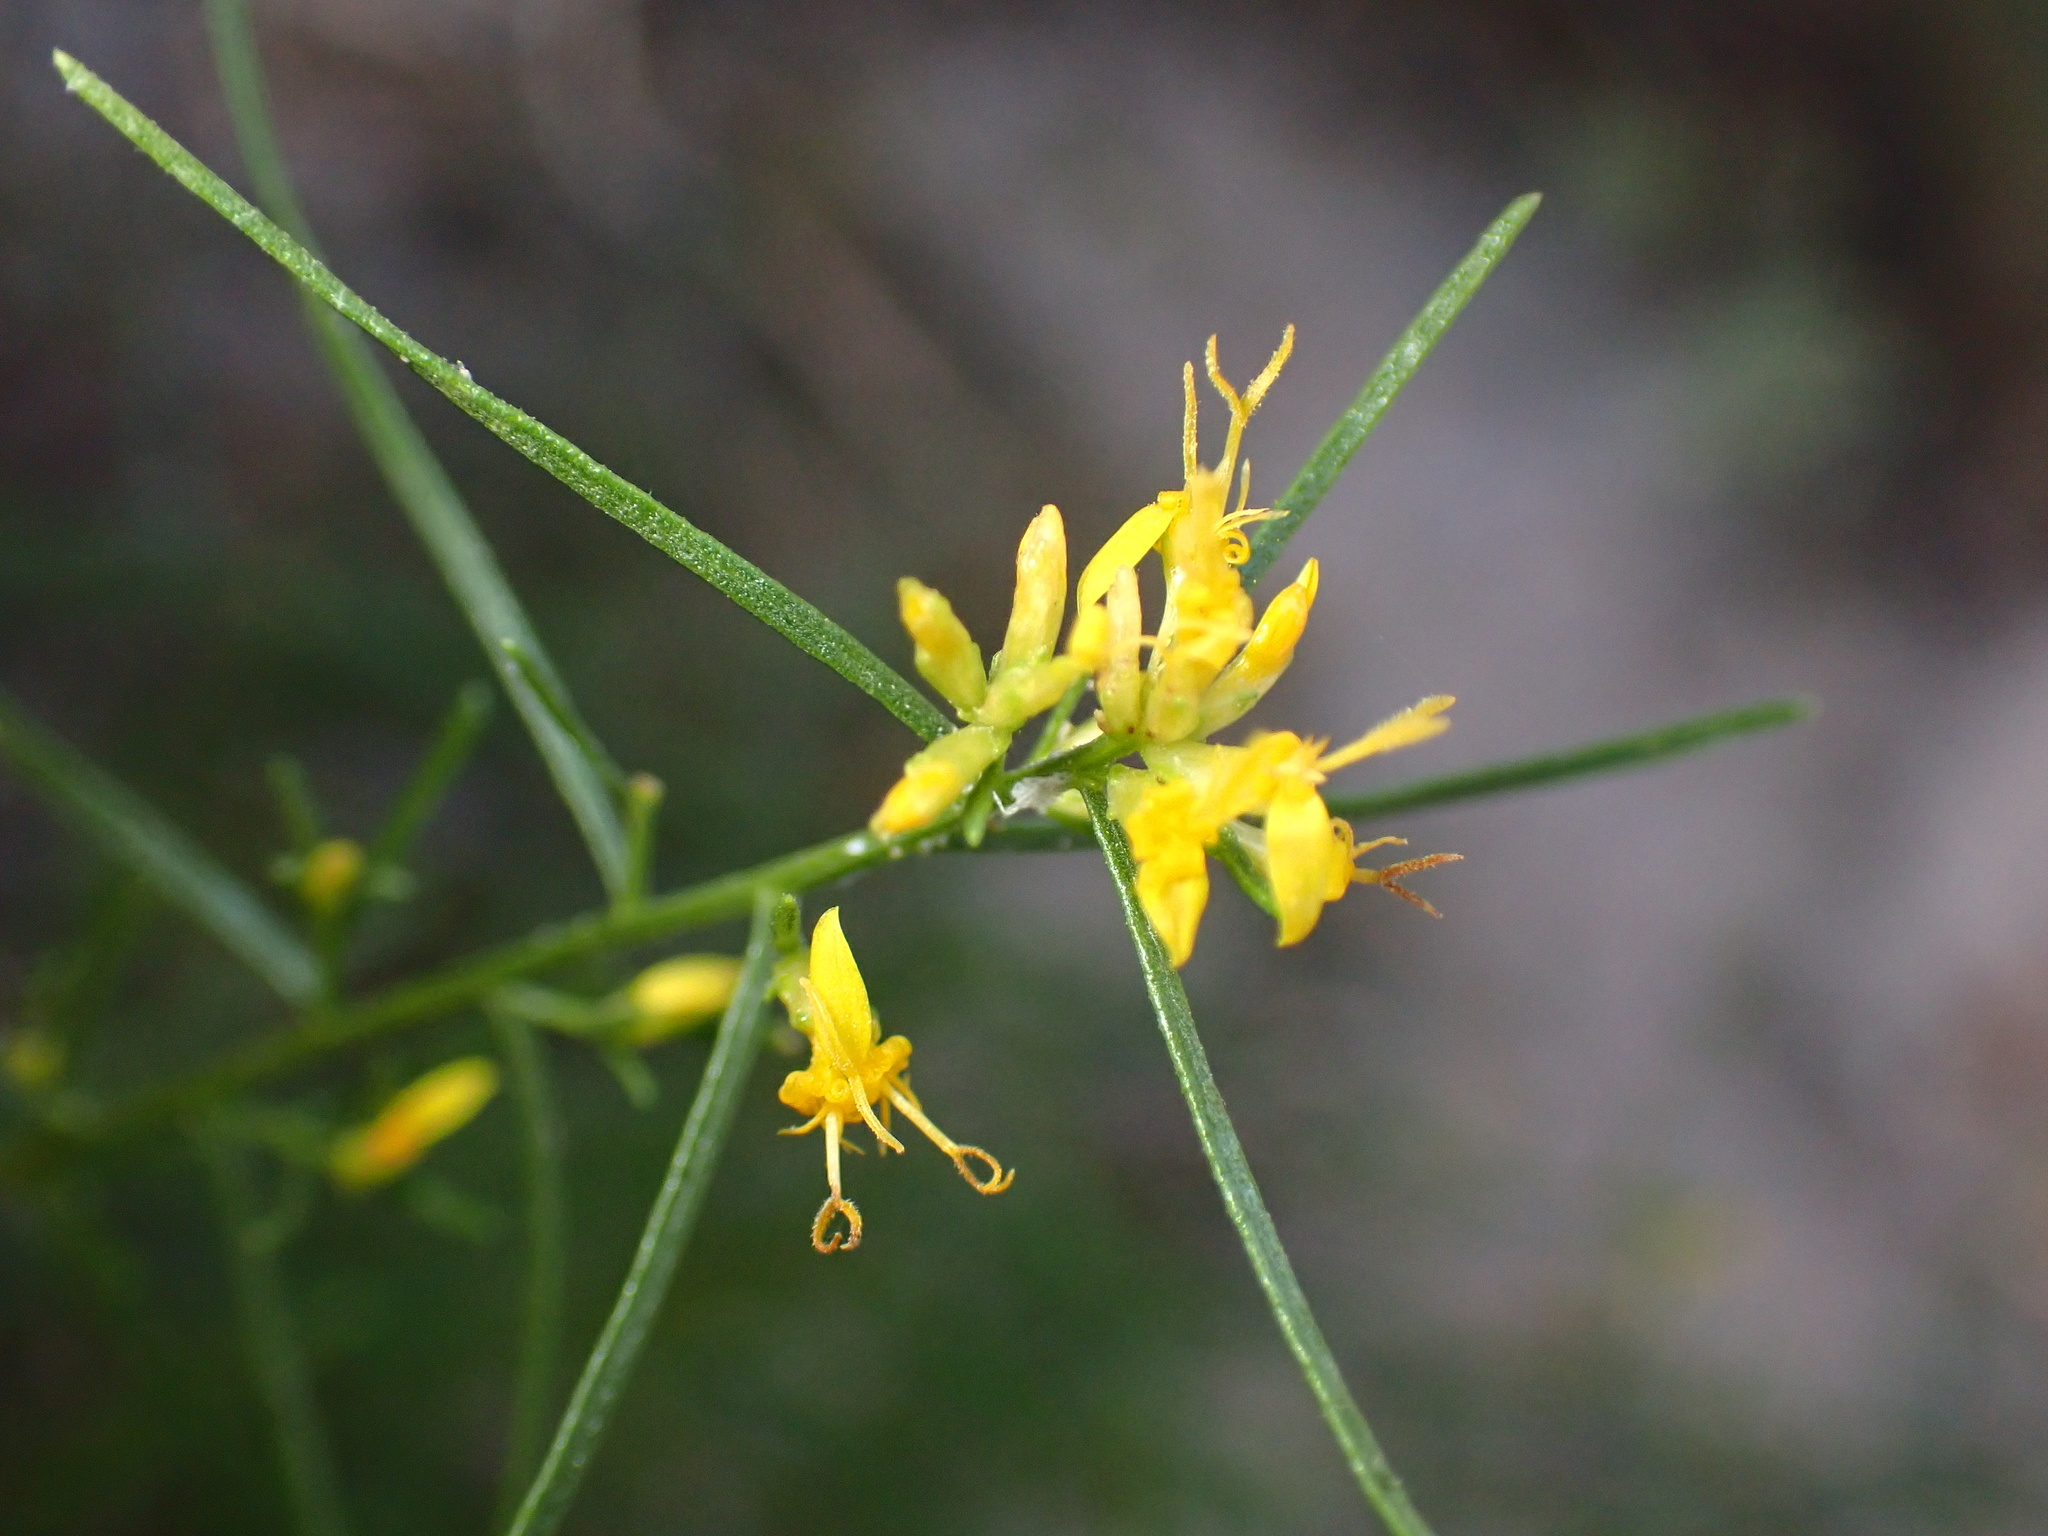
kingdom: Plantae
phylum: Tracheophyta
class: Magnoliopsida
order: Asterales
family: Asteraceae
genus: Gutierrezia
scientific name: Gutierrezia microcephala
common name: Thread snakeweed
